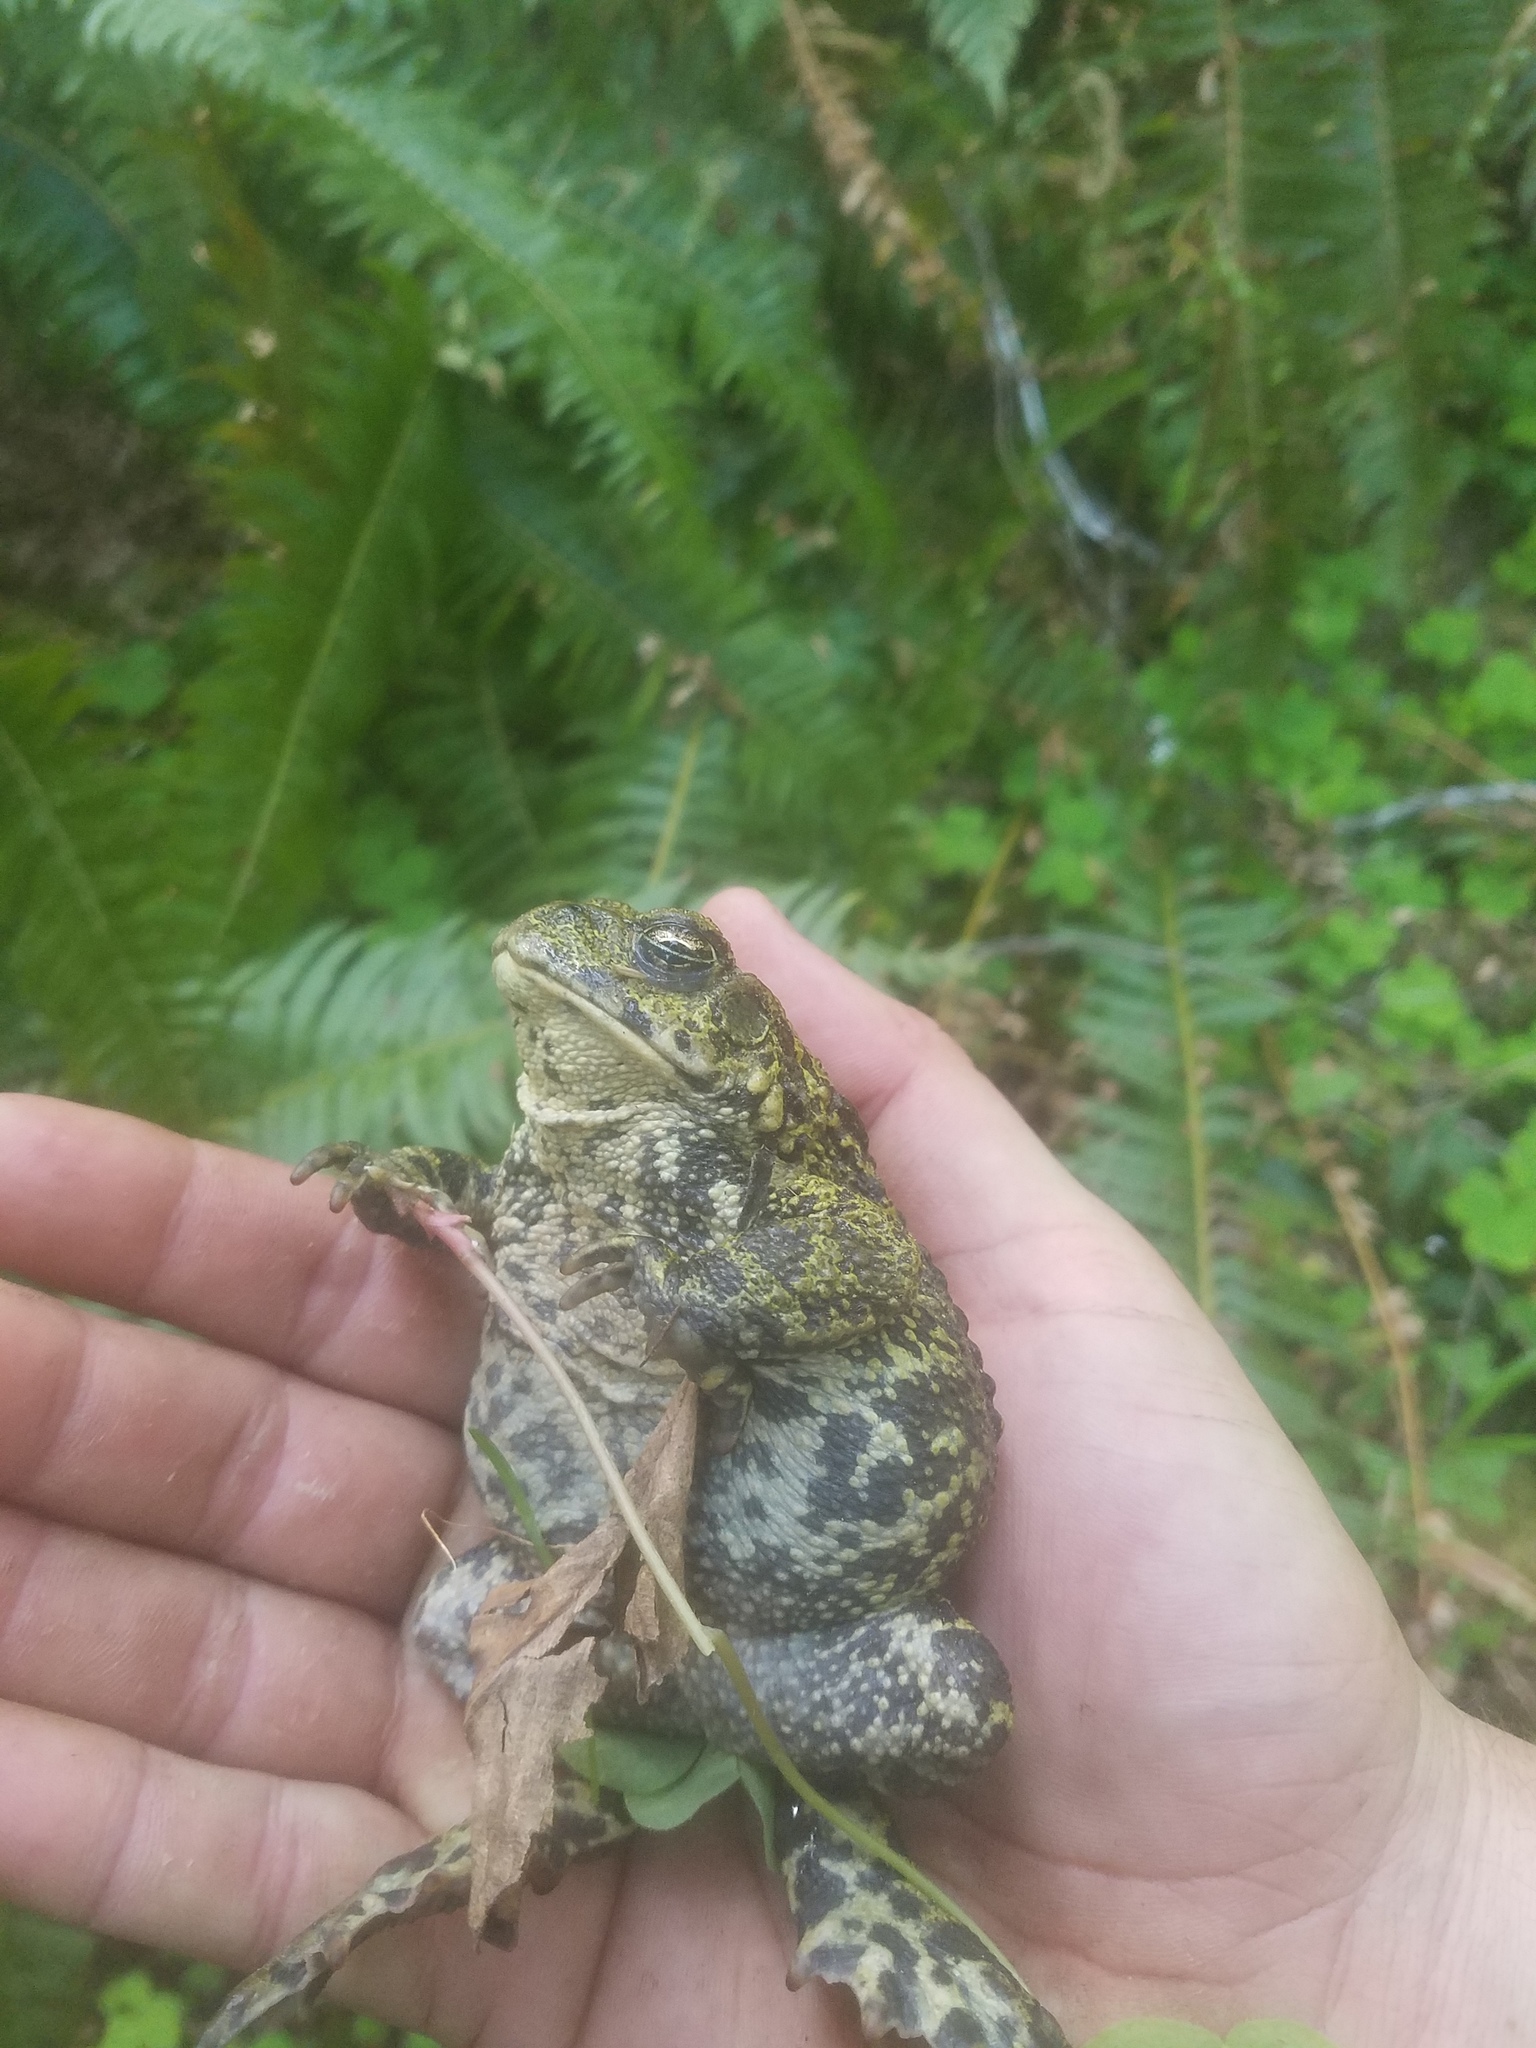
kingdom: Animalia
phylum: Chordata
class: Amphibia
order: Anura
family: Bufonidae
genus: Anaxyrus
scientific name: Anaxyrus boreas
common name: Western toad
